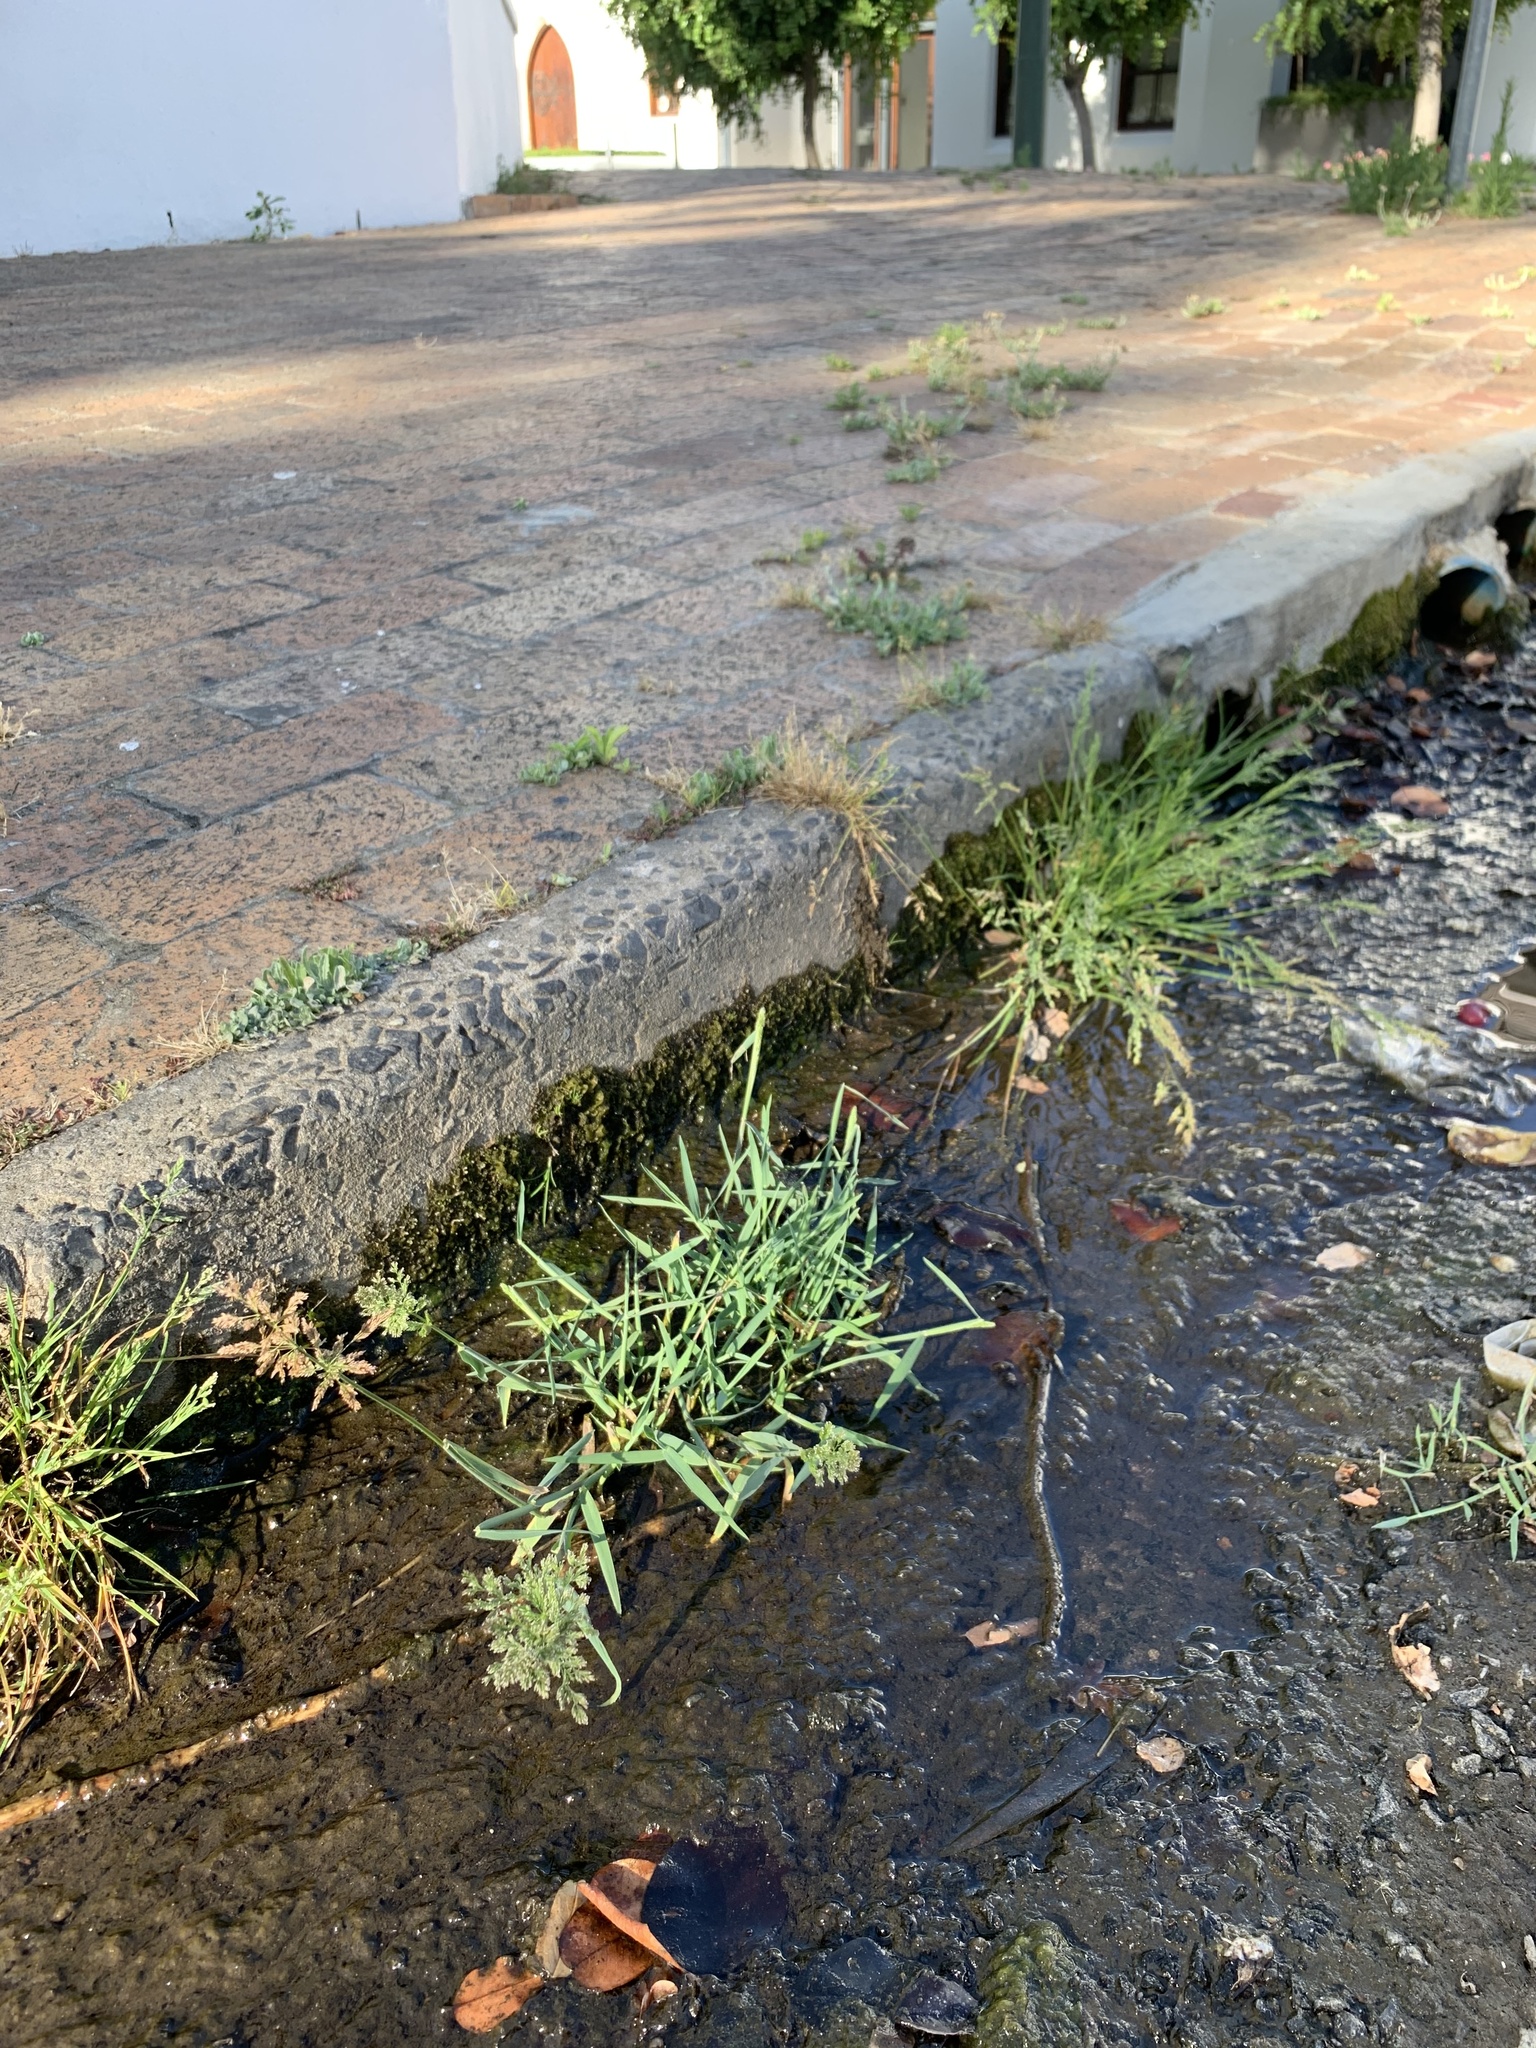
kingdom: Plantae
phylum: Tracheophyta
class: Liliopsida
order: Poales
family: Poaceae
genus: Polypogon
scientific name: Polypogon viridis
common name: Water bent
